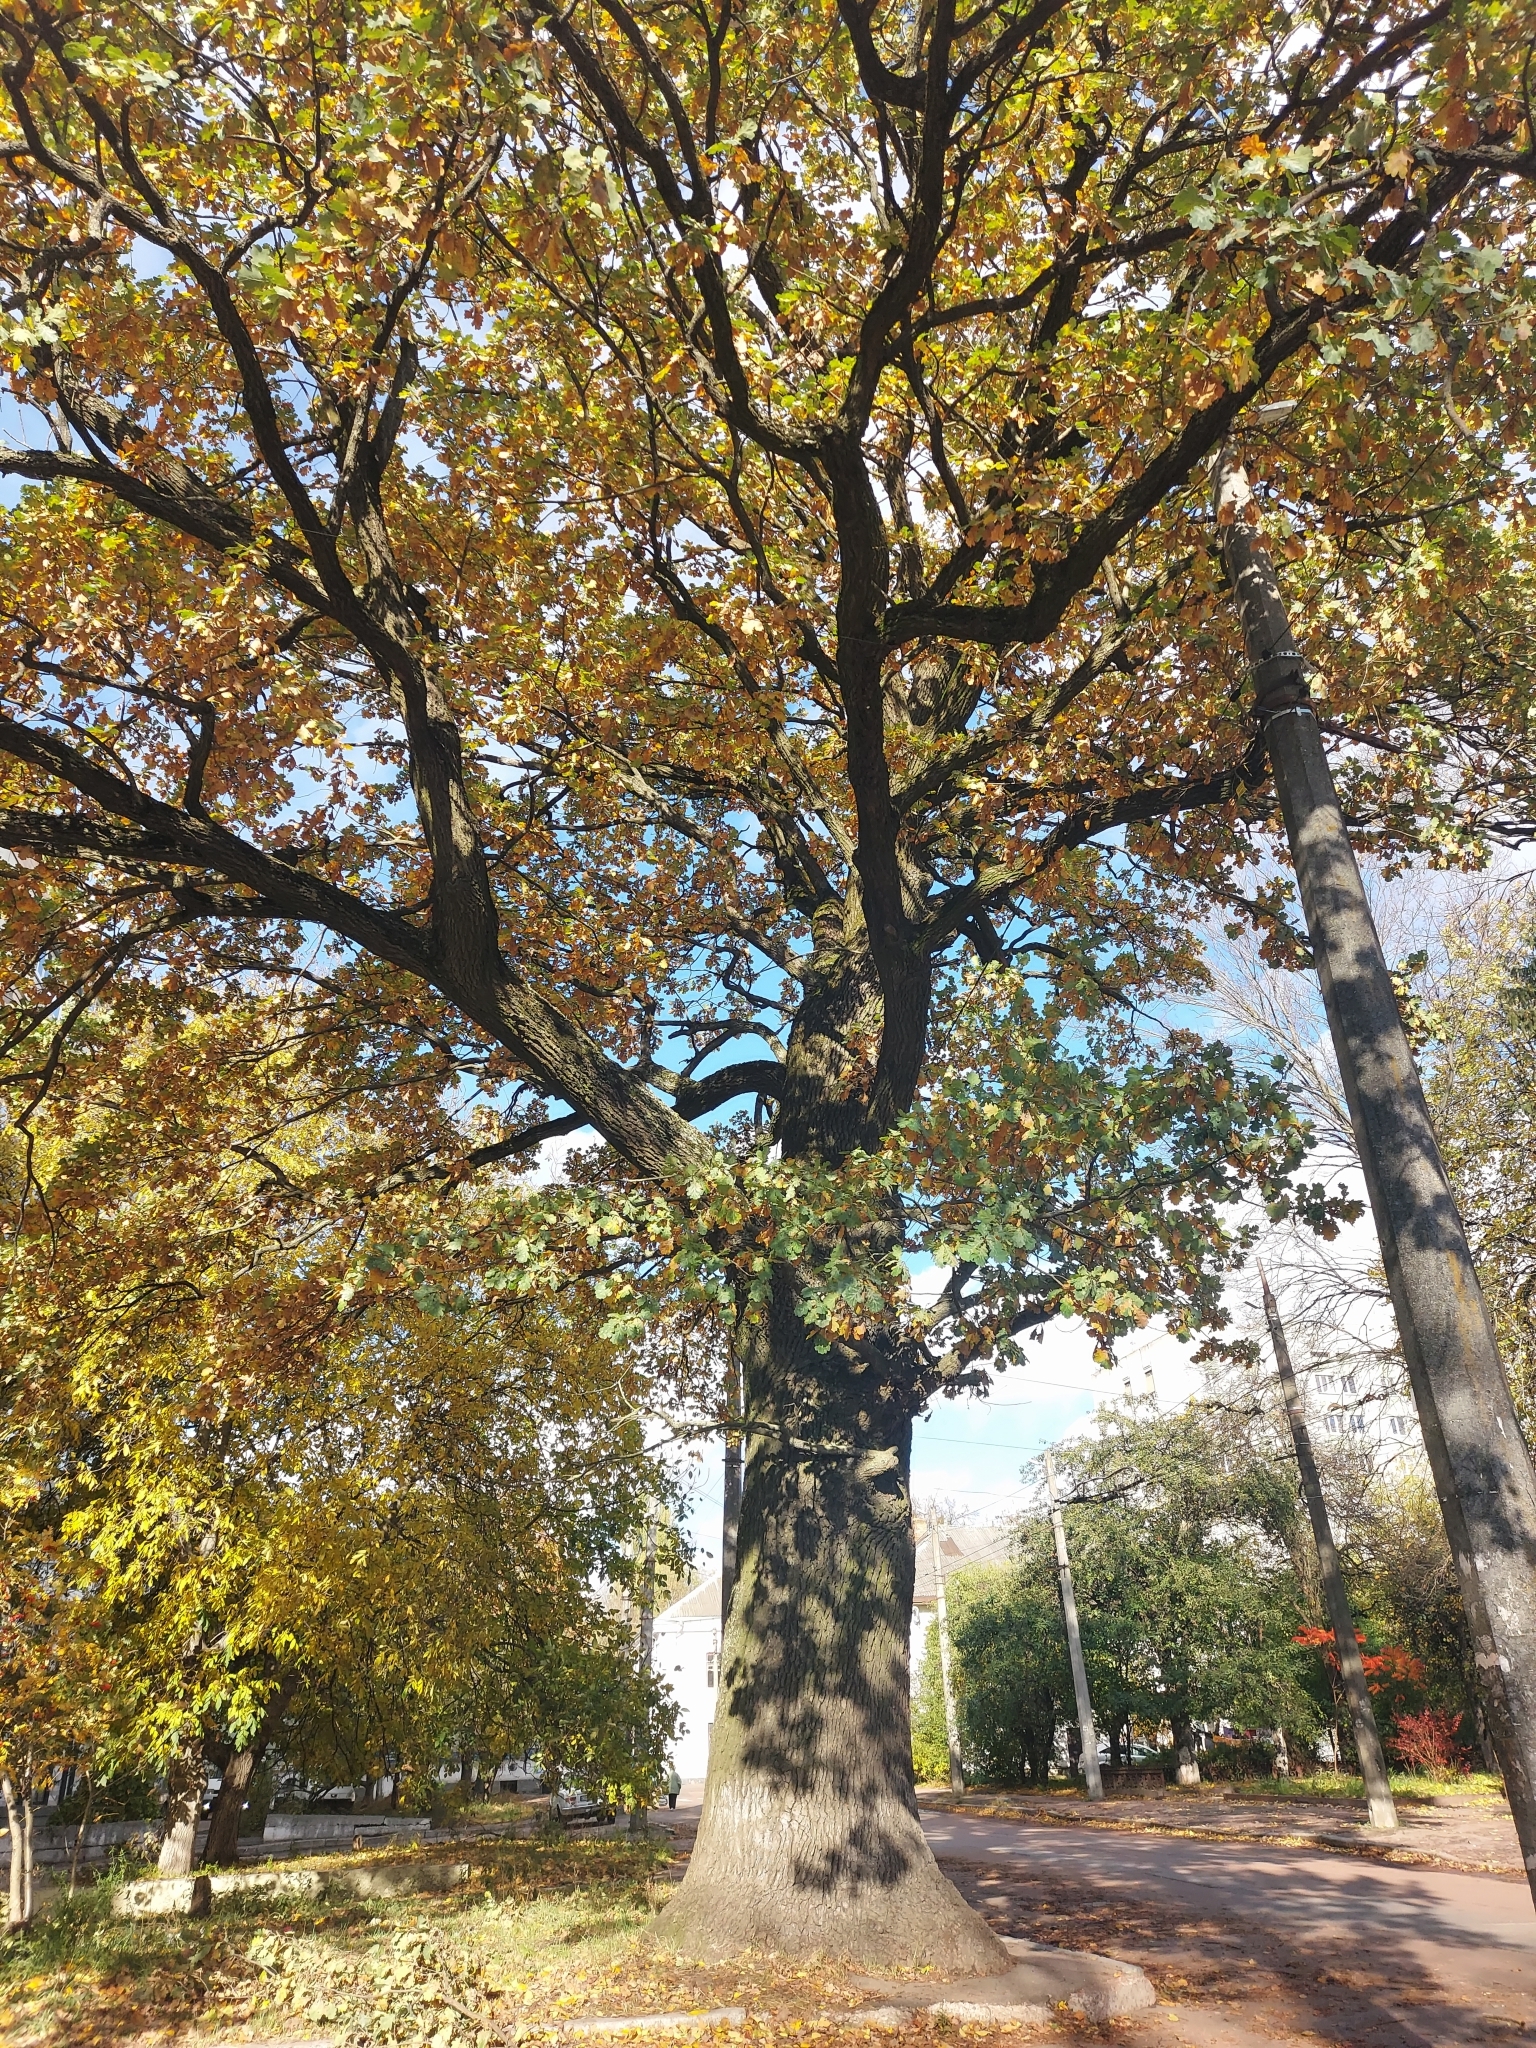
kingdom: Plantae
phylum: Tracheophyta
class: Magnoliopsida
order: Fagales
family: Fagaceae
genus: Quercus
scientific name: Quercus robur
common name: Pedunculate oak
